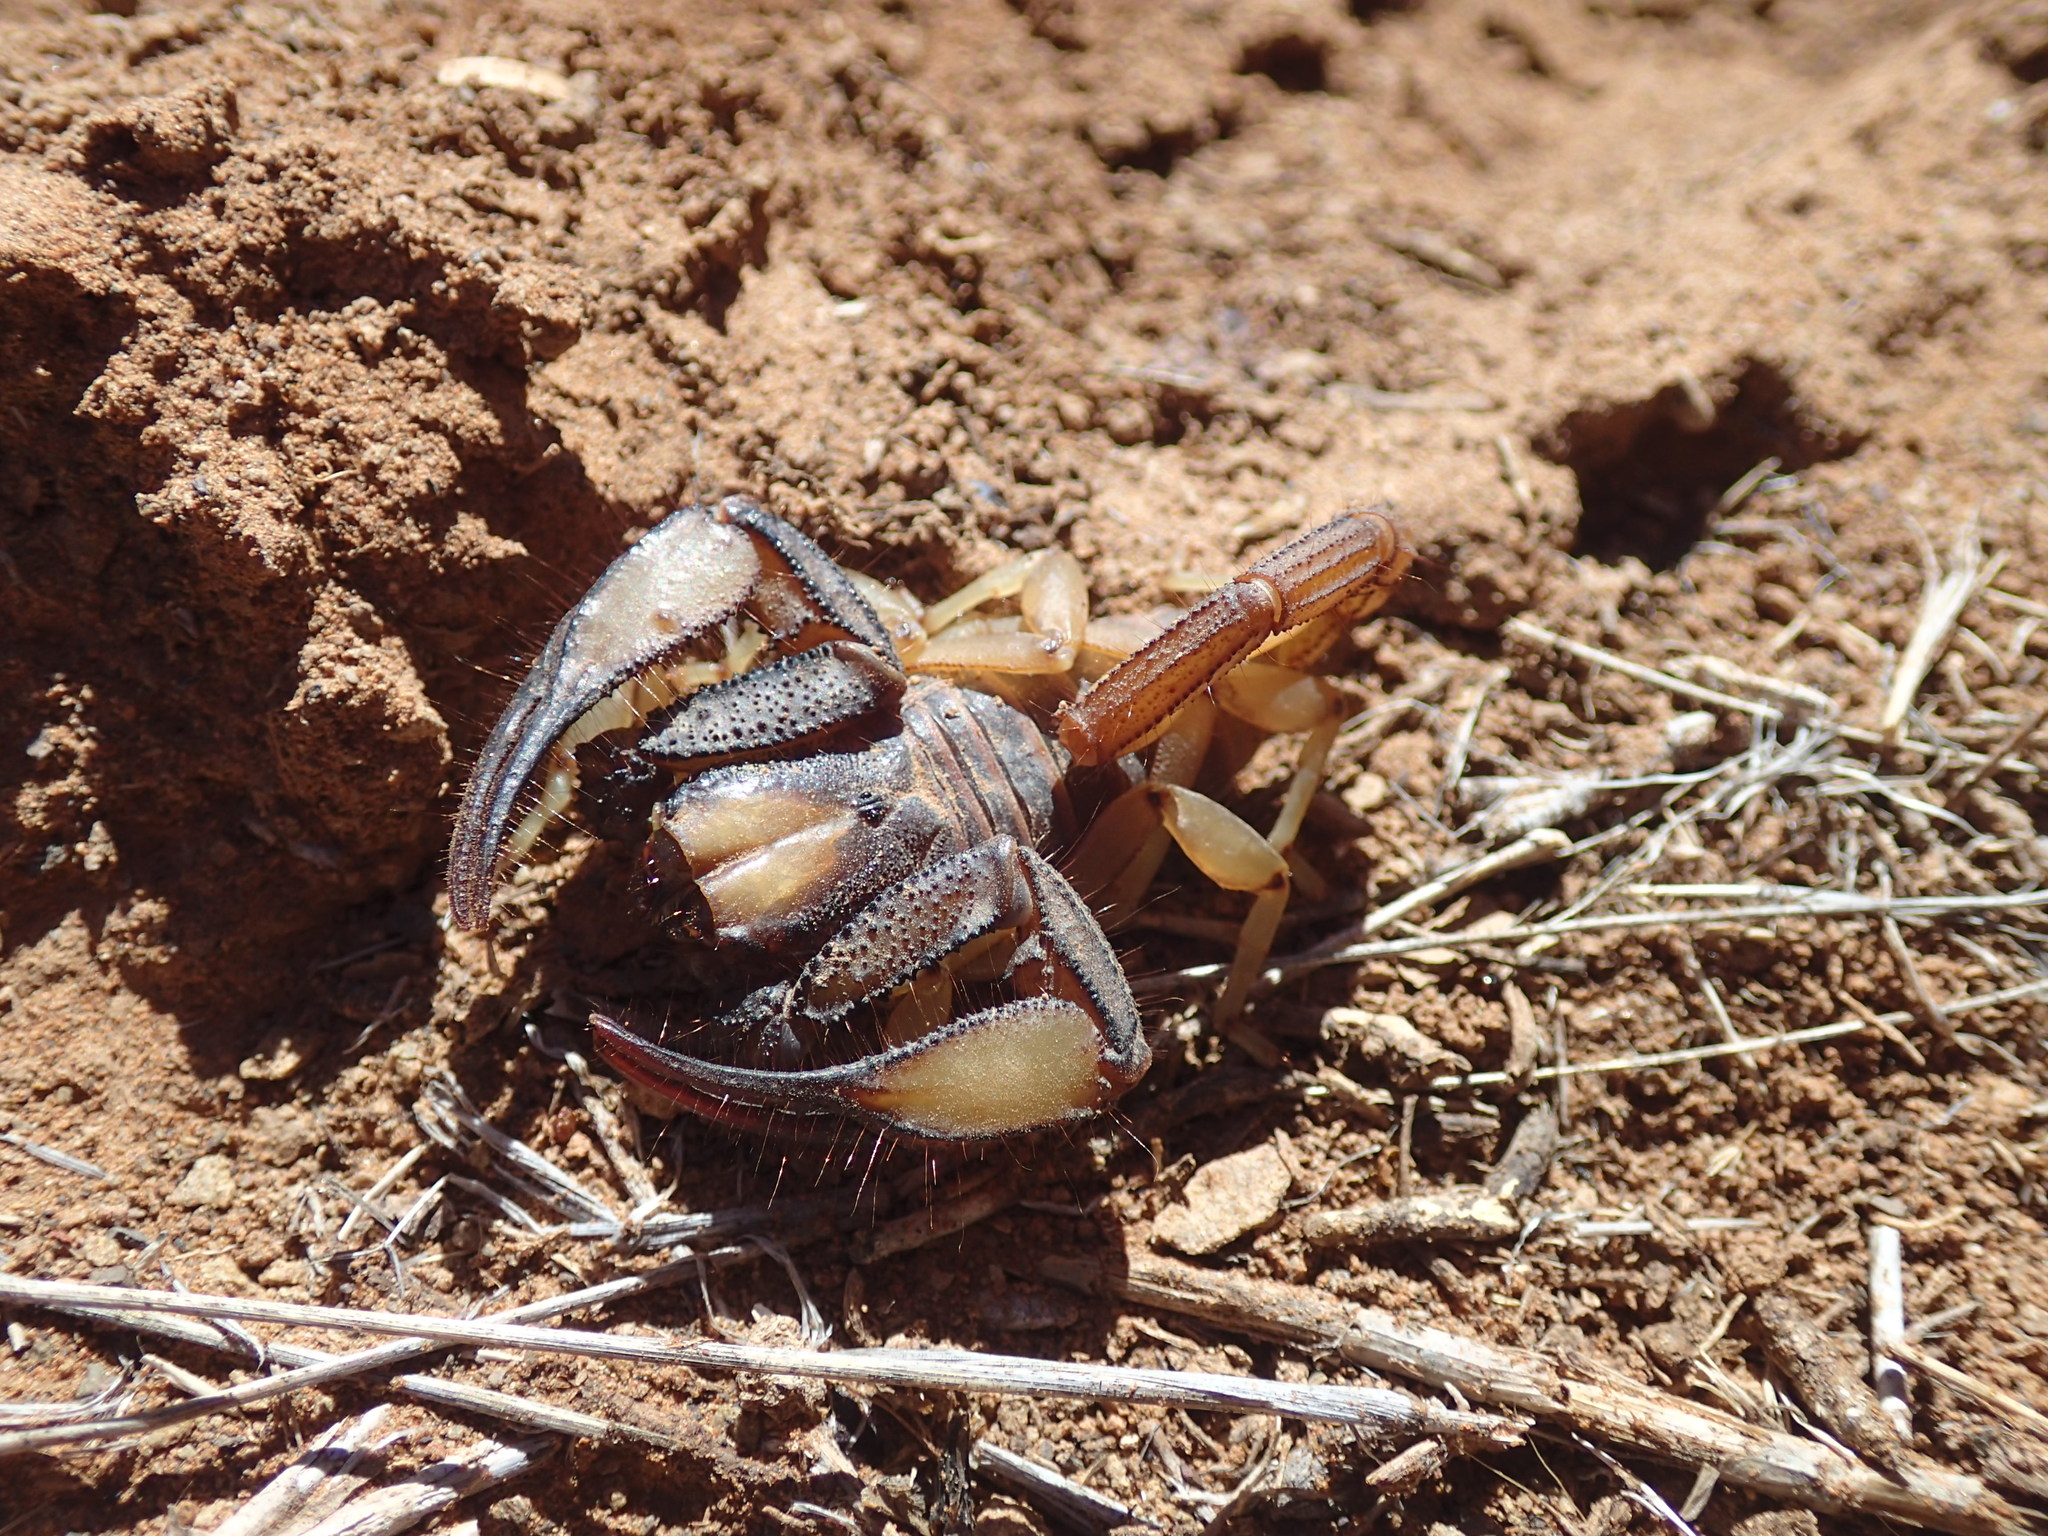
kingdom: Animalia
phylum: Arthropoda
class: Arachnida
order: Scorpiones
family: Scorpionidae
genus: Opistophthalmus
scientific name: Opistophthalmus karrooensis
